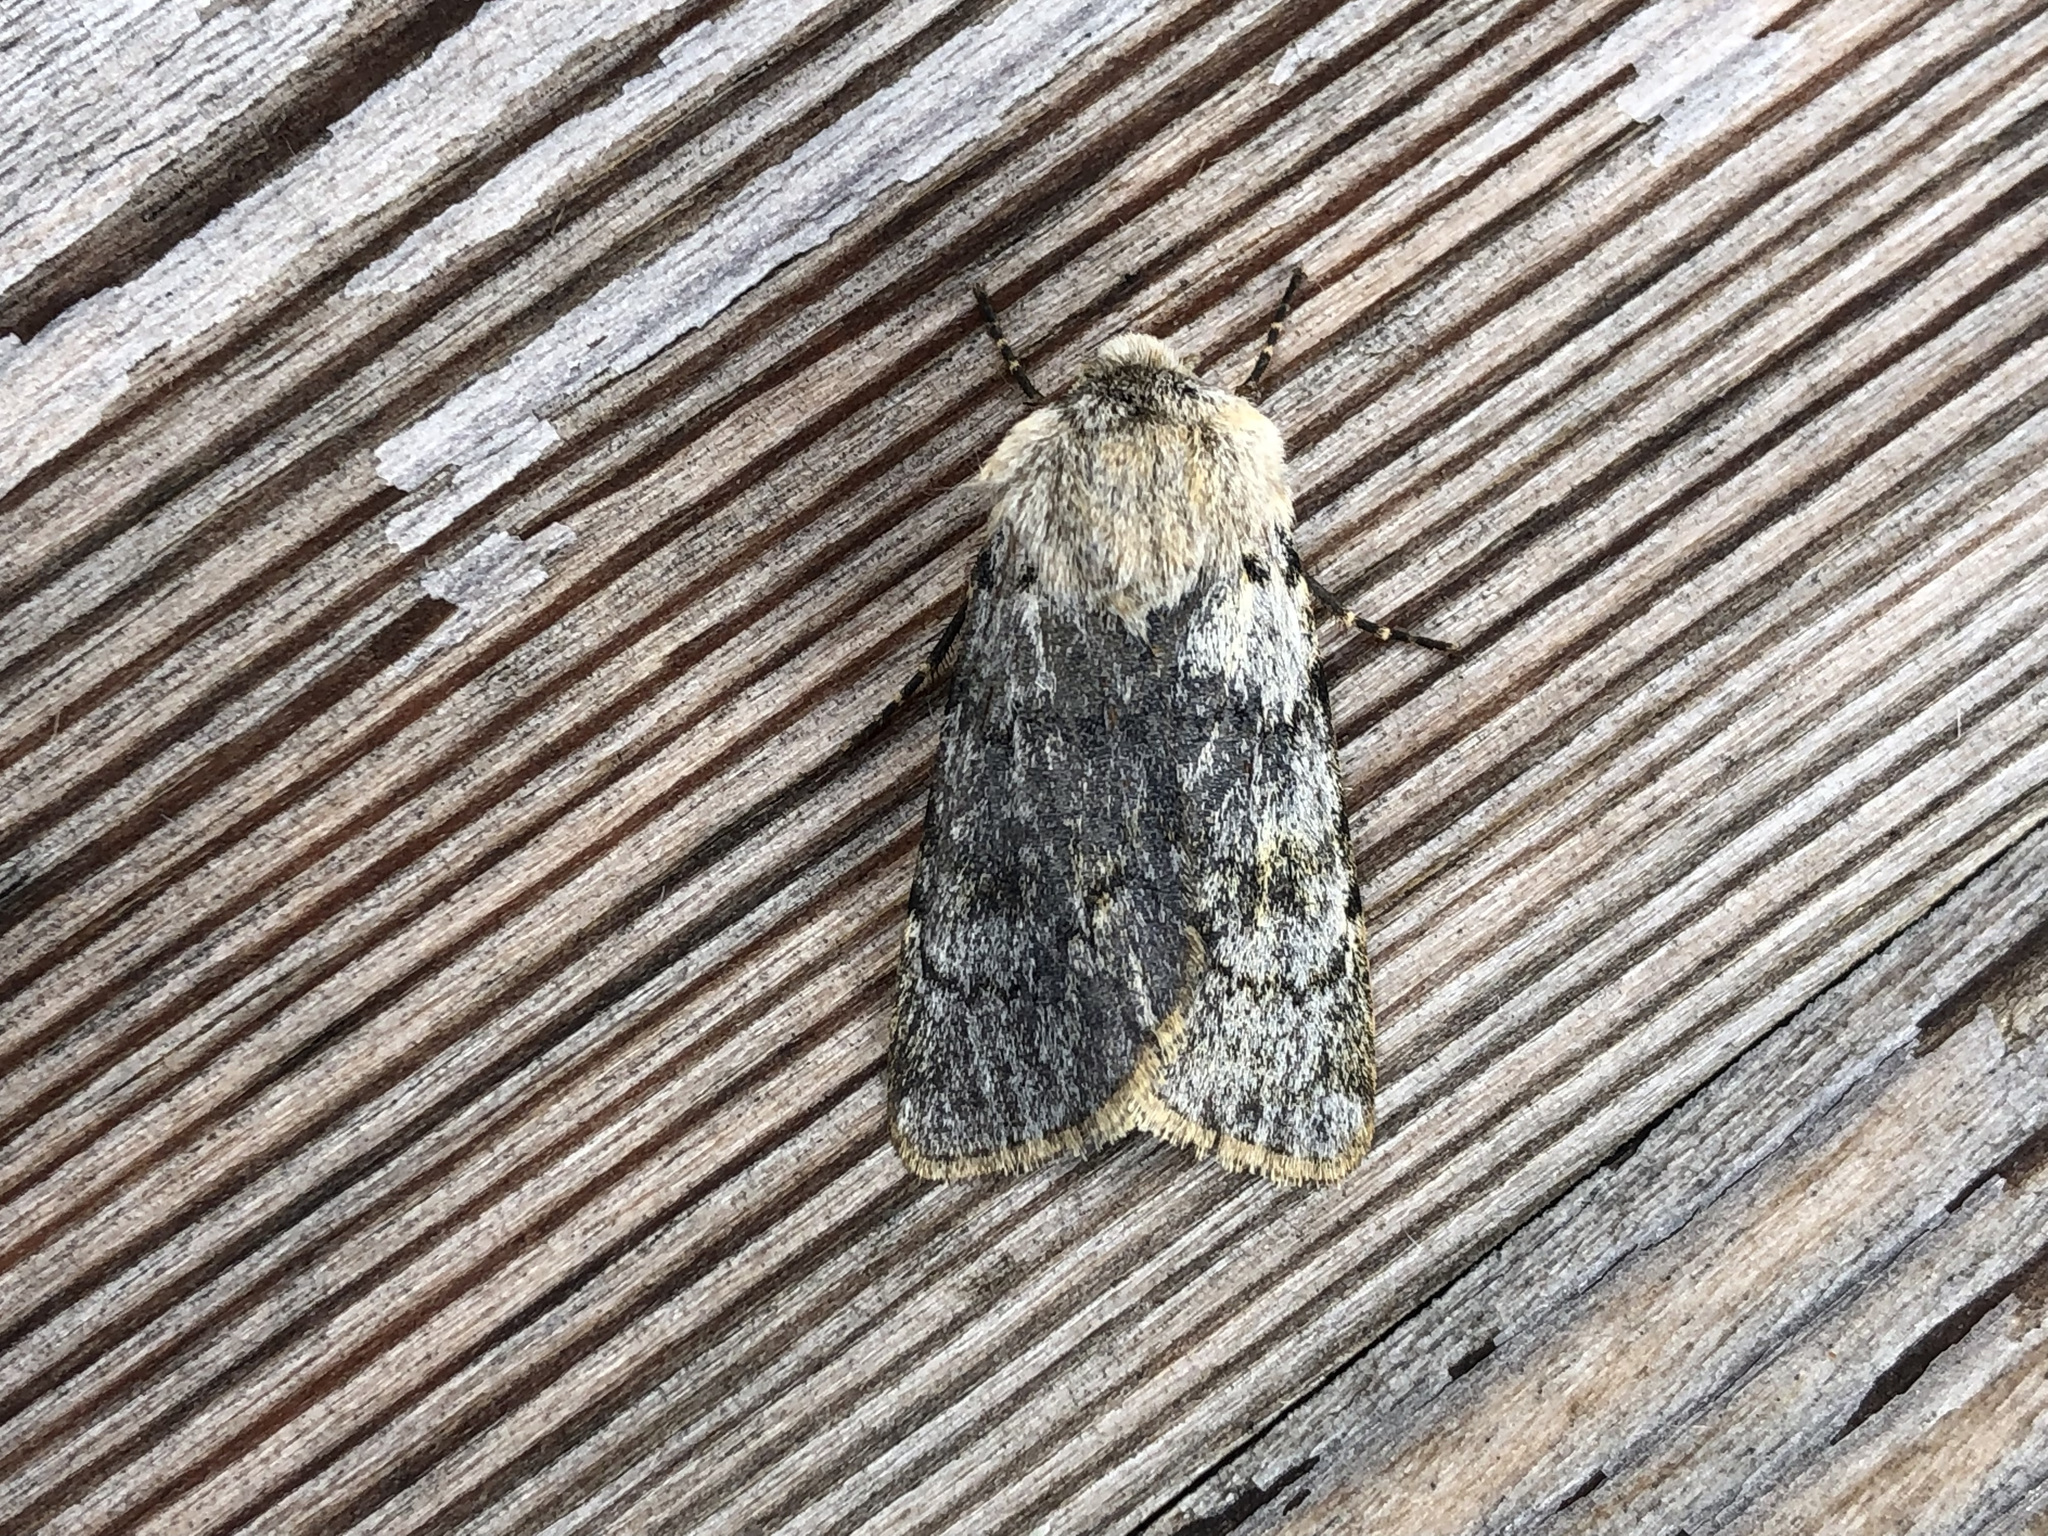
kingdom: Animalia
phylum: Arthropoda
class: Insecta
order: Lepidoptera
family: Noctuidae
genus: Agrotis
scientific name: Agrotis simplonia
